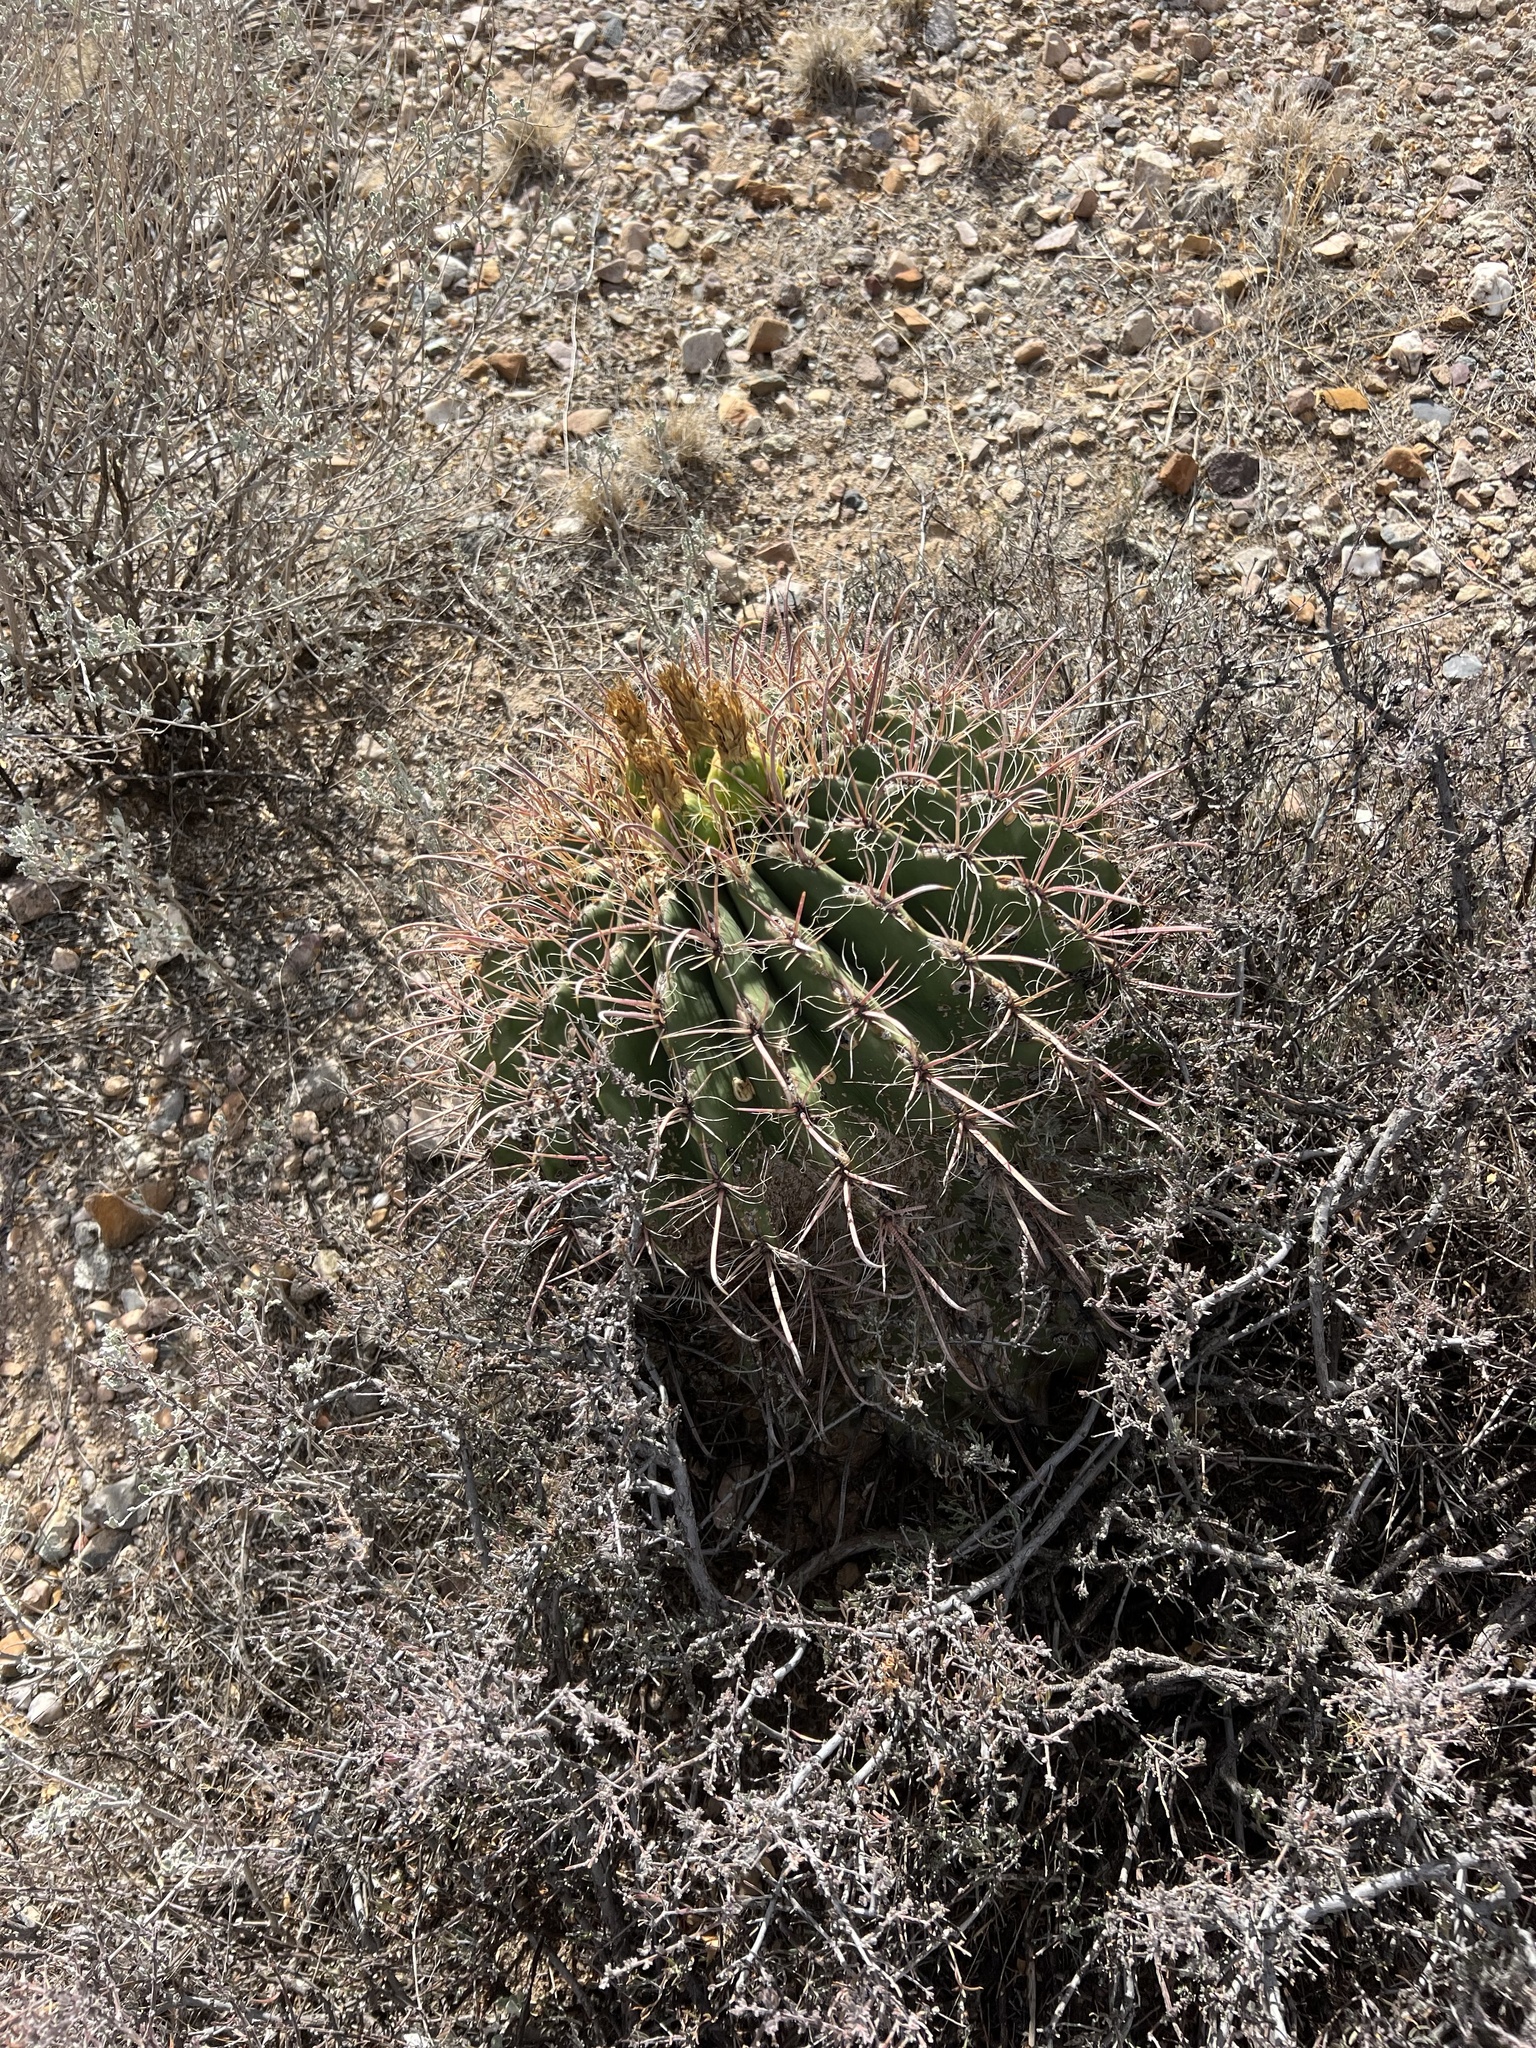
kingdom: Plantae
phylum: Tracheophyta
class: Magnoliopsida
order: Caryophyllales
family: Cactaceae
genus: Ferocactus
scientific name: Ferocactus wislizeni
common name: Candy barrel cactus
